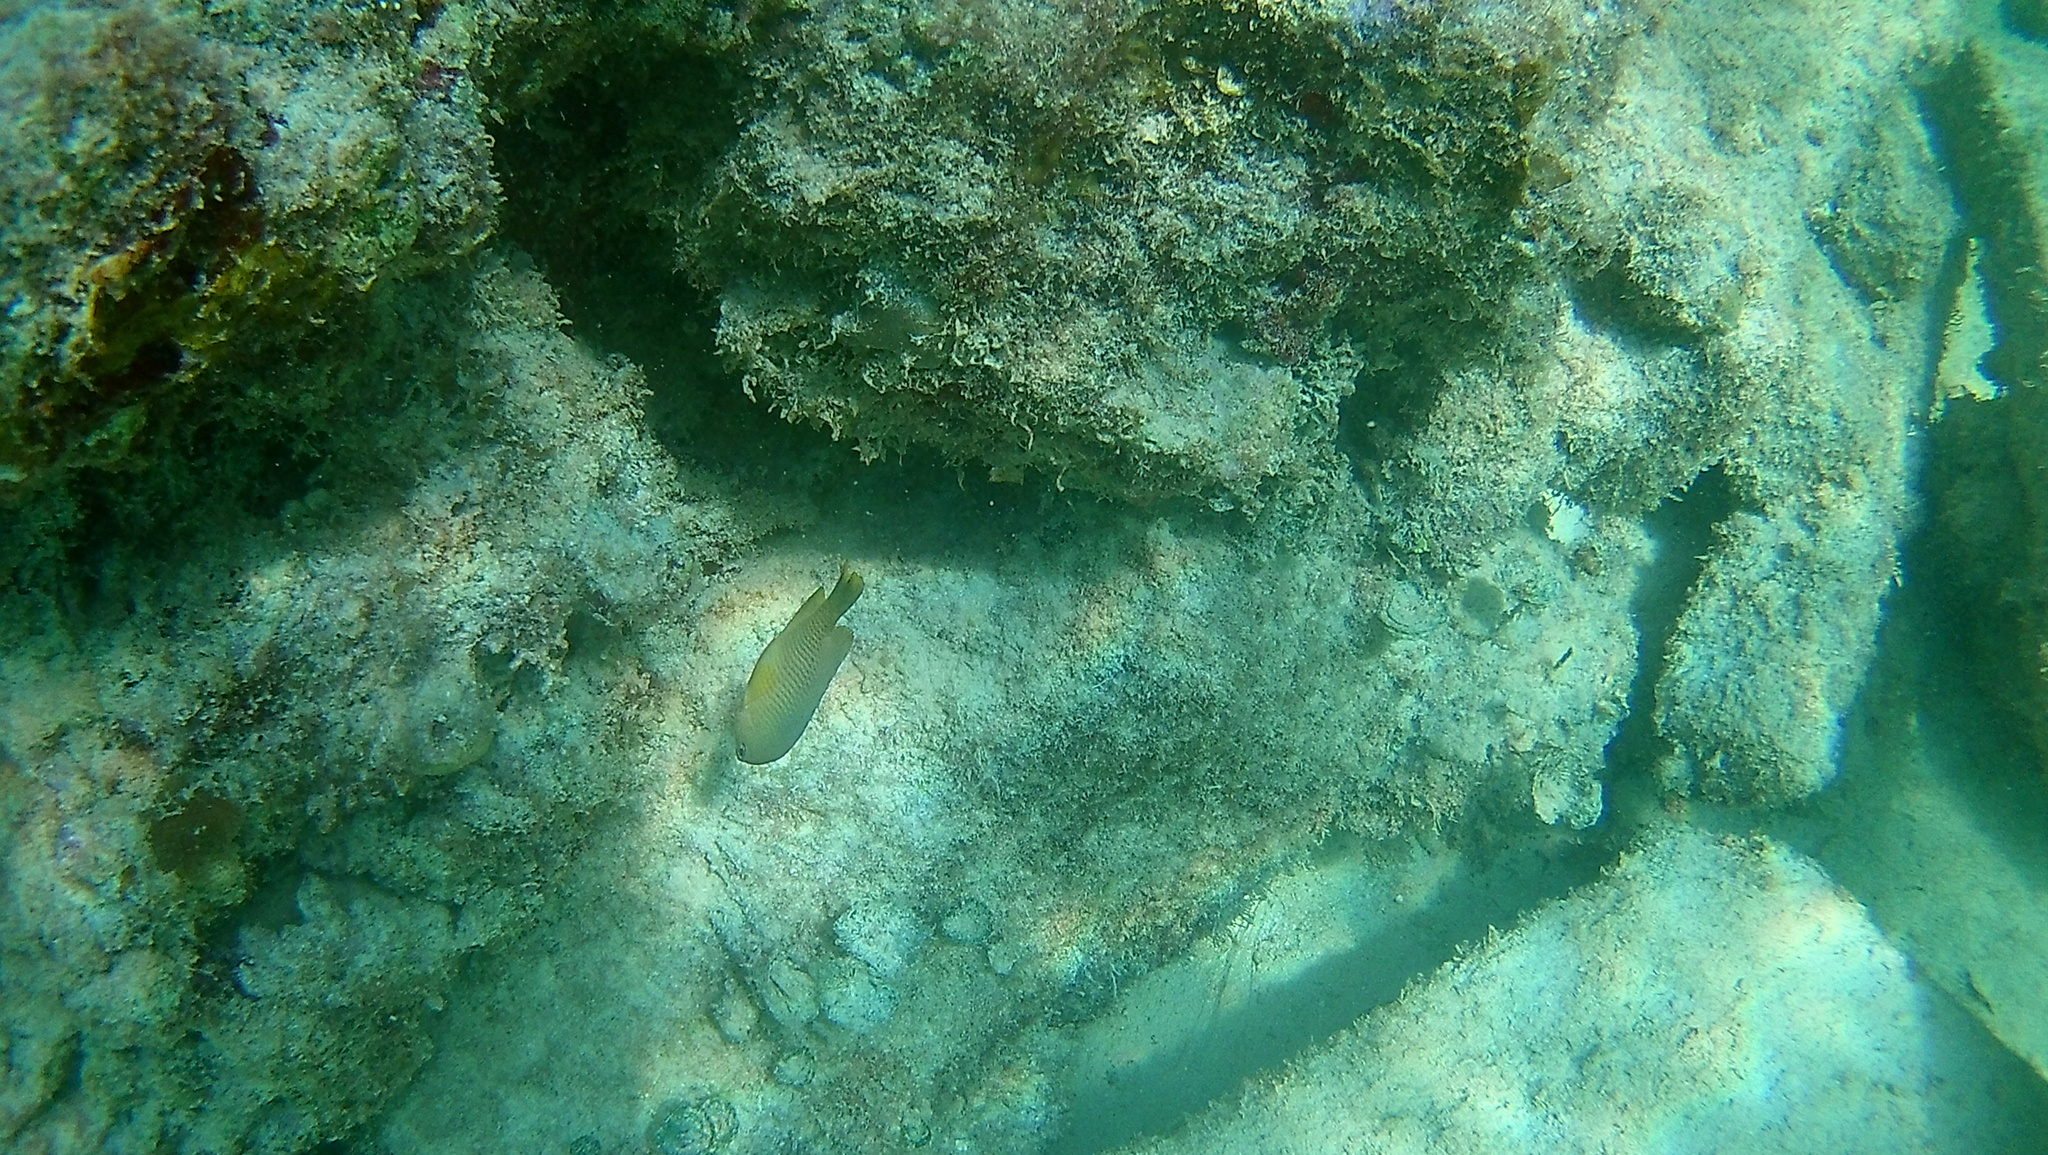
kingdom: Animalia
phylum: Chordata
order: Perciformes
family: Pomacentridae
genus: Stegastes
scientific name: Stegastes leucostictus
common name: Beaugregory
